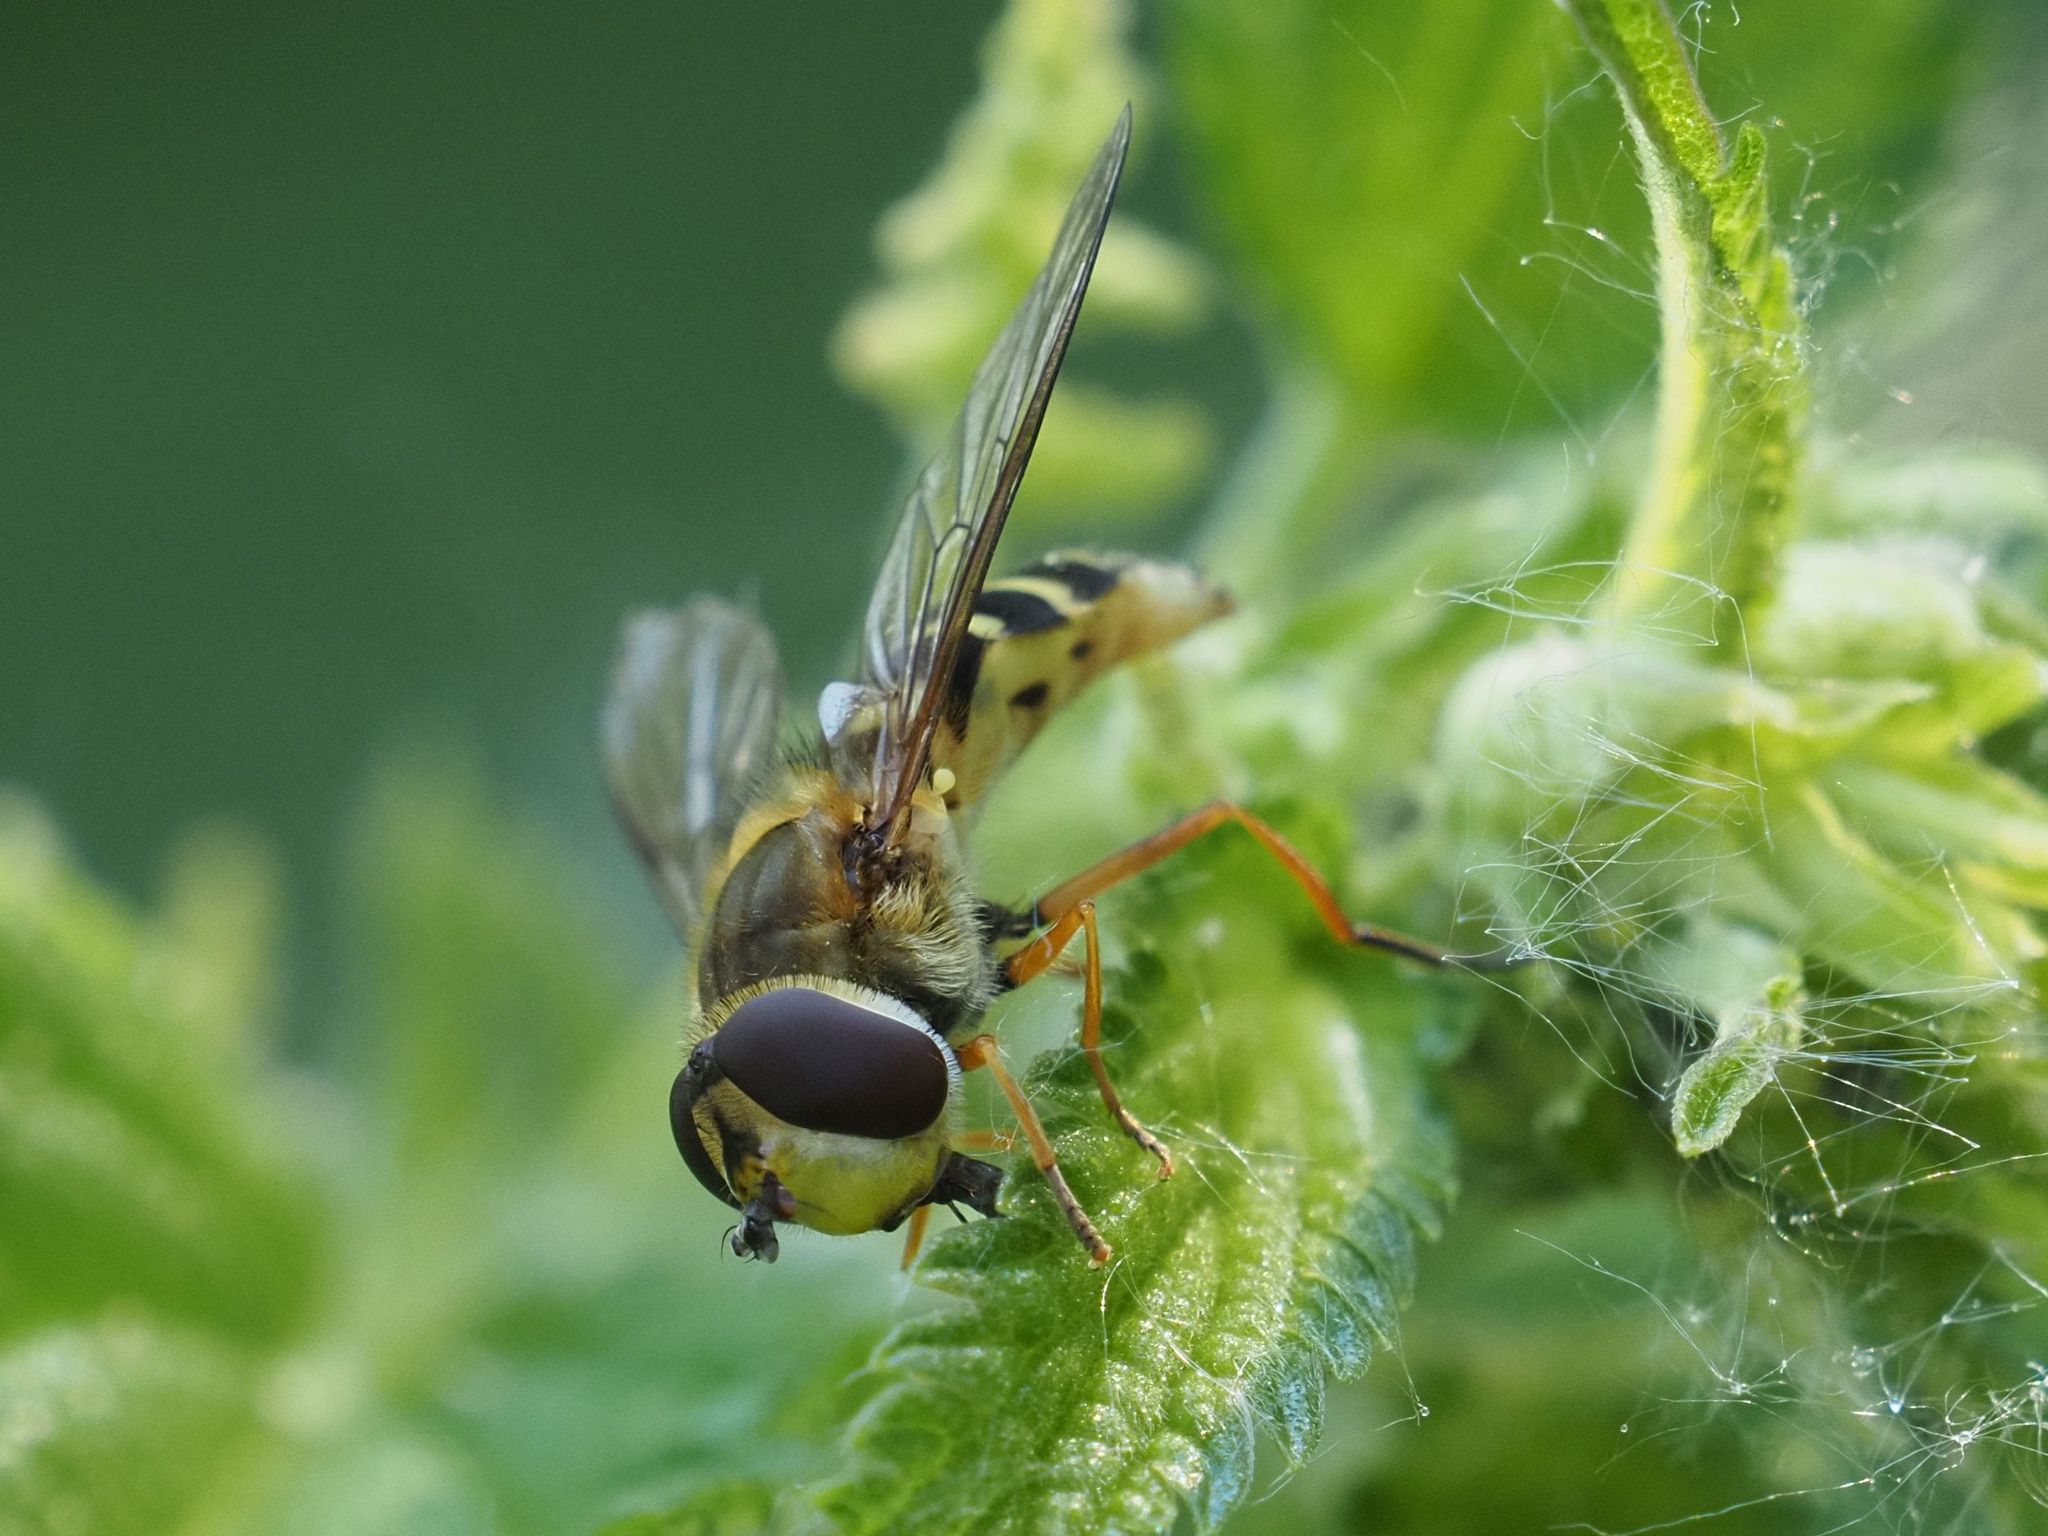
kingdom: Animalia
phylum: Arthropoda
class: Insecta
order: Diptera
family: Syrphidae
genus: Syrphus
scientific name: Syrphus ribesii
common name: Common flower fly
